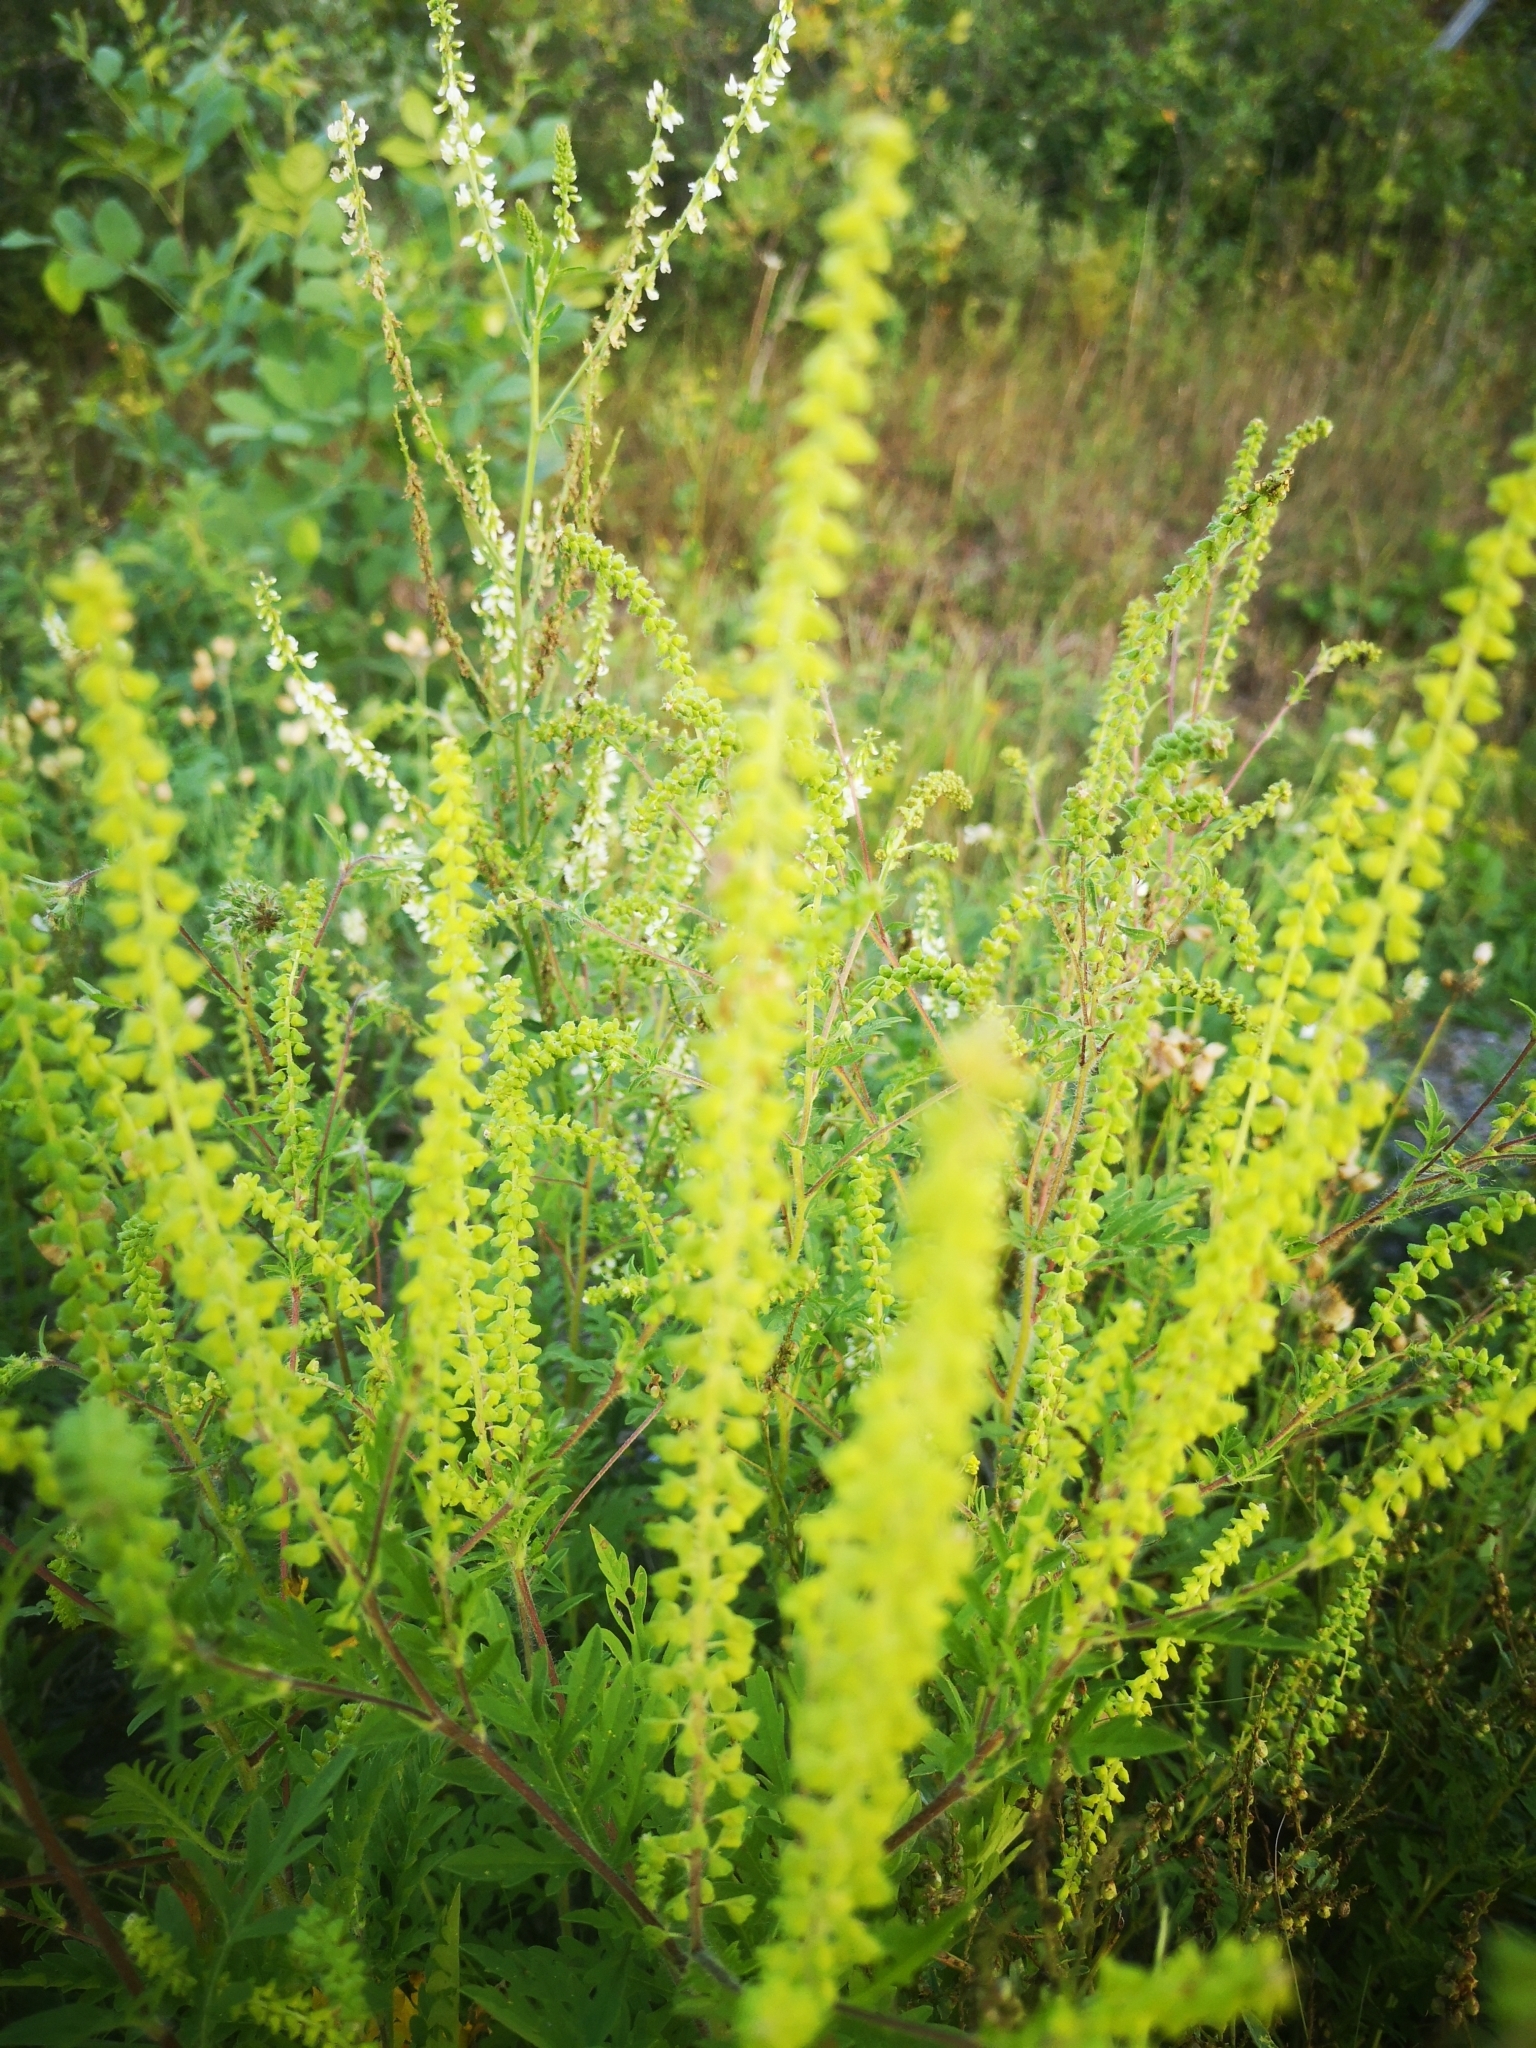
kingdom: Plantae
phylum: Tracheophyta
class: Magnoliopsida
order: Asterales
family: Asteraceae
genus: Ambrosia
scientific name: Ambrosia artemisiifolia
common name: Annual ragweed
